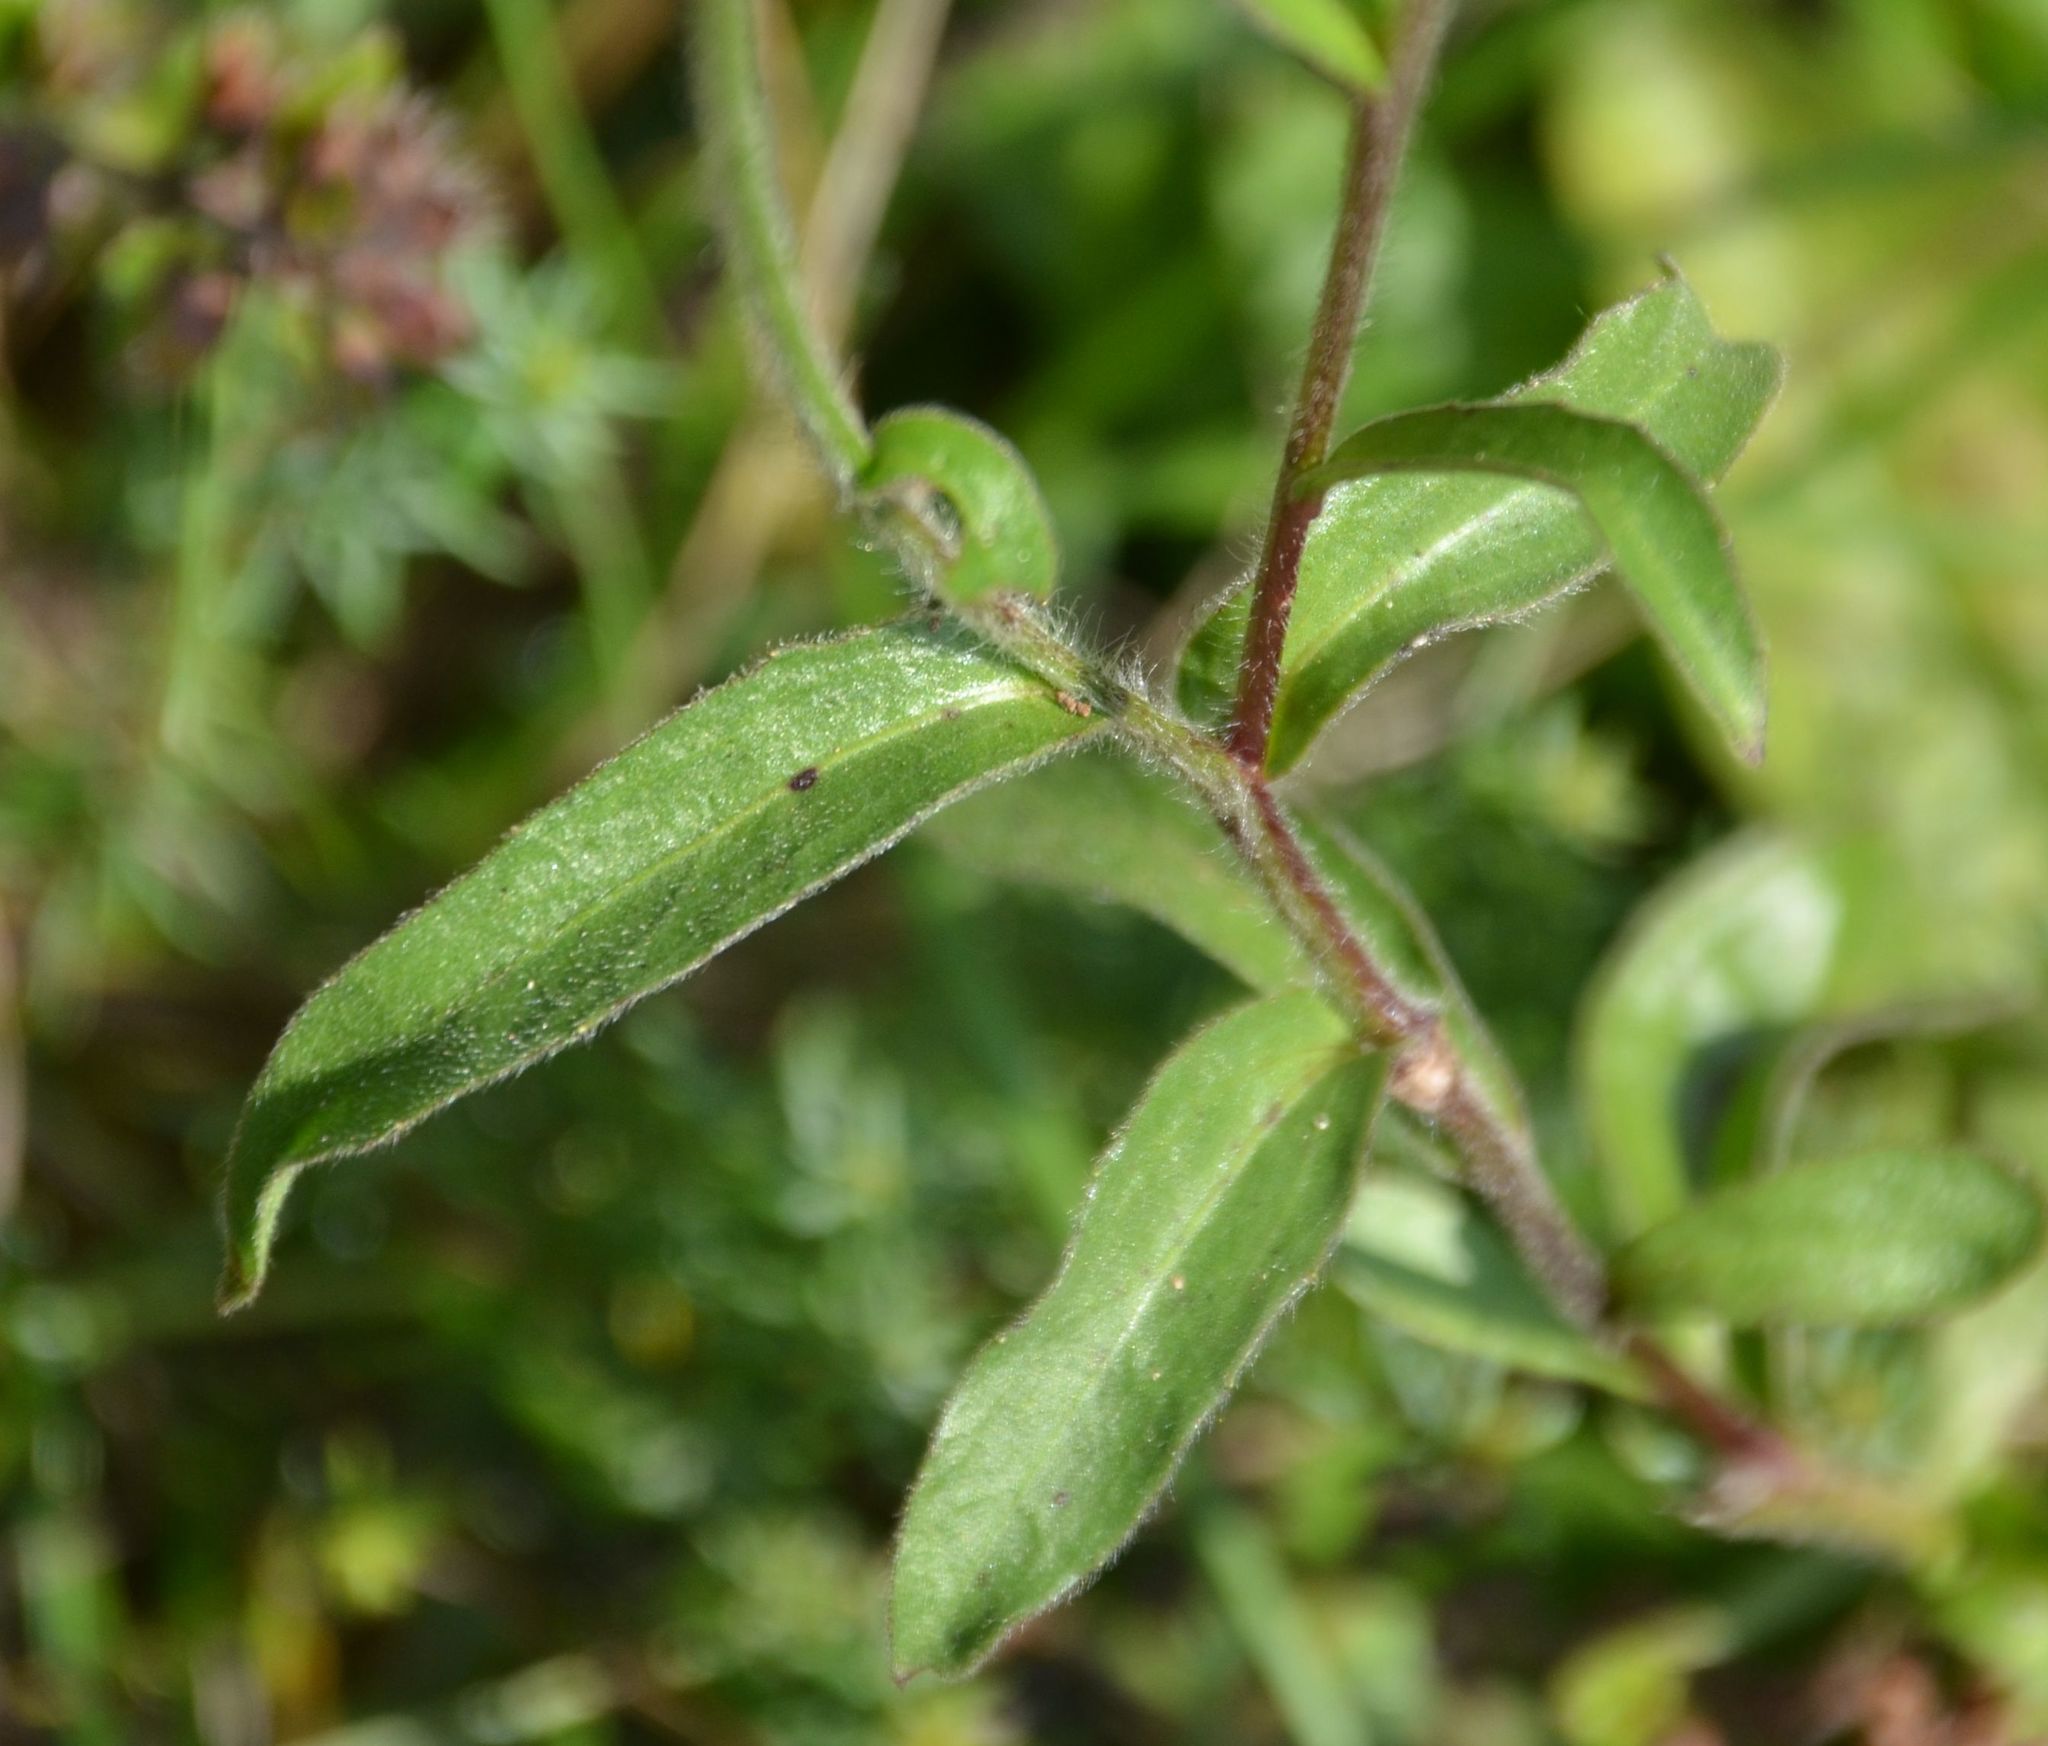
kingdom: Plantae
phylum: Tracheophyta
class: Magnoliopsida
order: Asterales
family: Asteraceae
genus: Buphthalmum
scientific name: Buphthalmum salicifolium
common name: Willow-leaved yellow-oxeye
